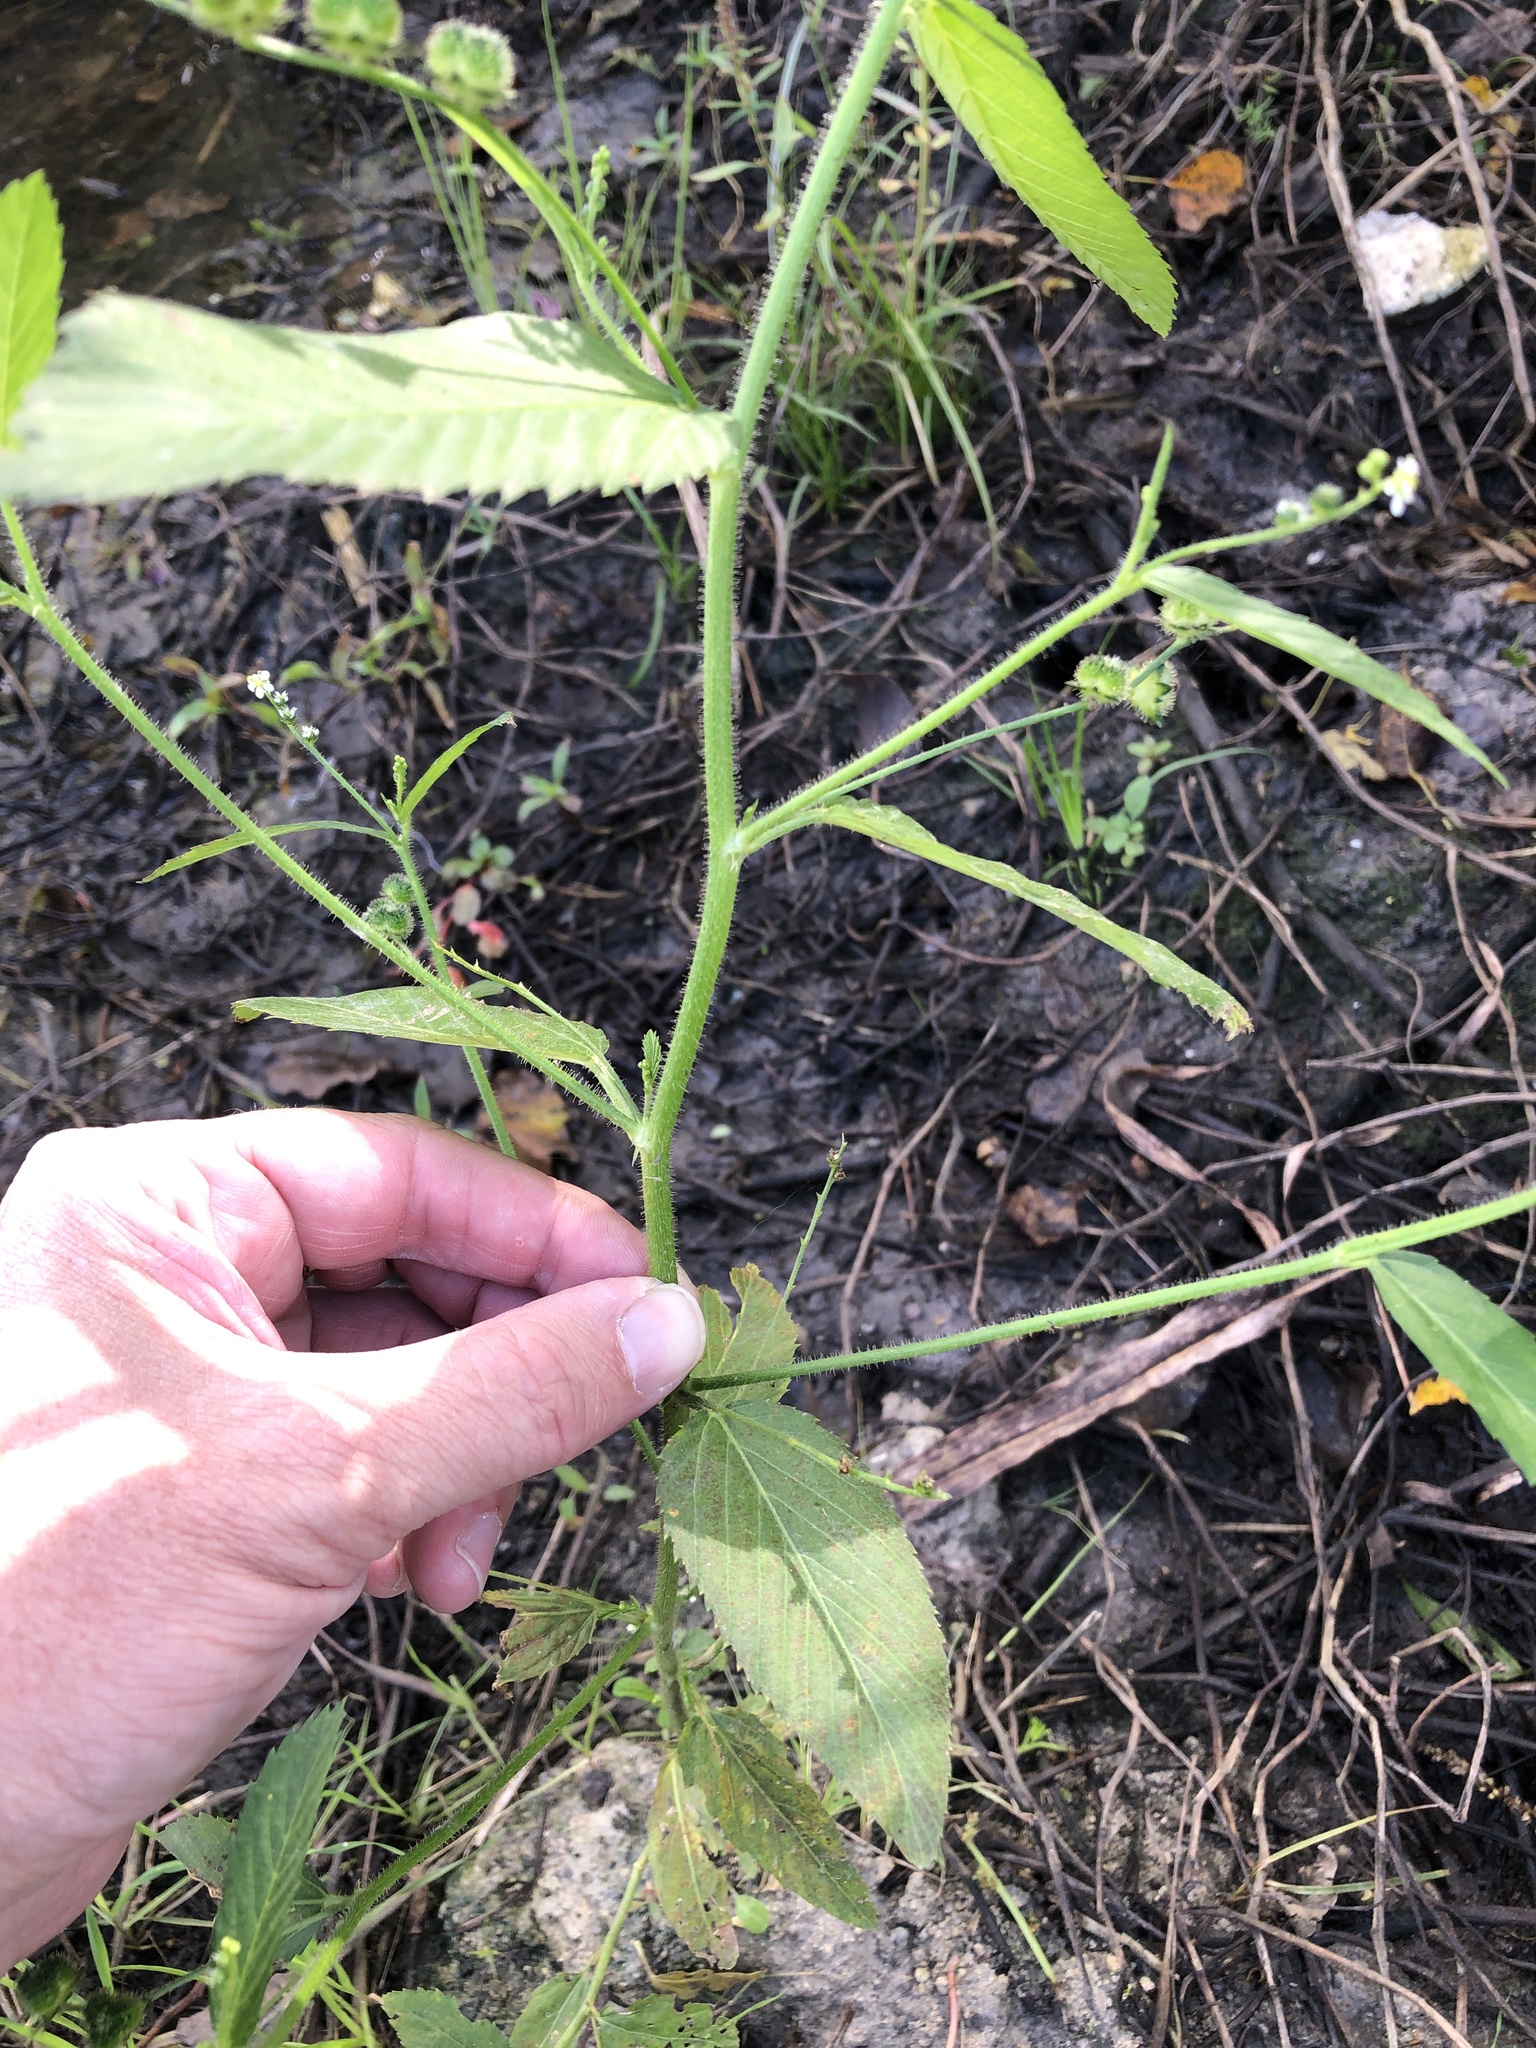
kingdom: Plantae
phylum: Tracheophyta
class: Magnoliopsida
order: Malpighiales
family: Euphorbiaceae
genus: Caperonia
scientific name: Caperonia palustris
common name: Sacatrapo
